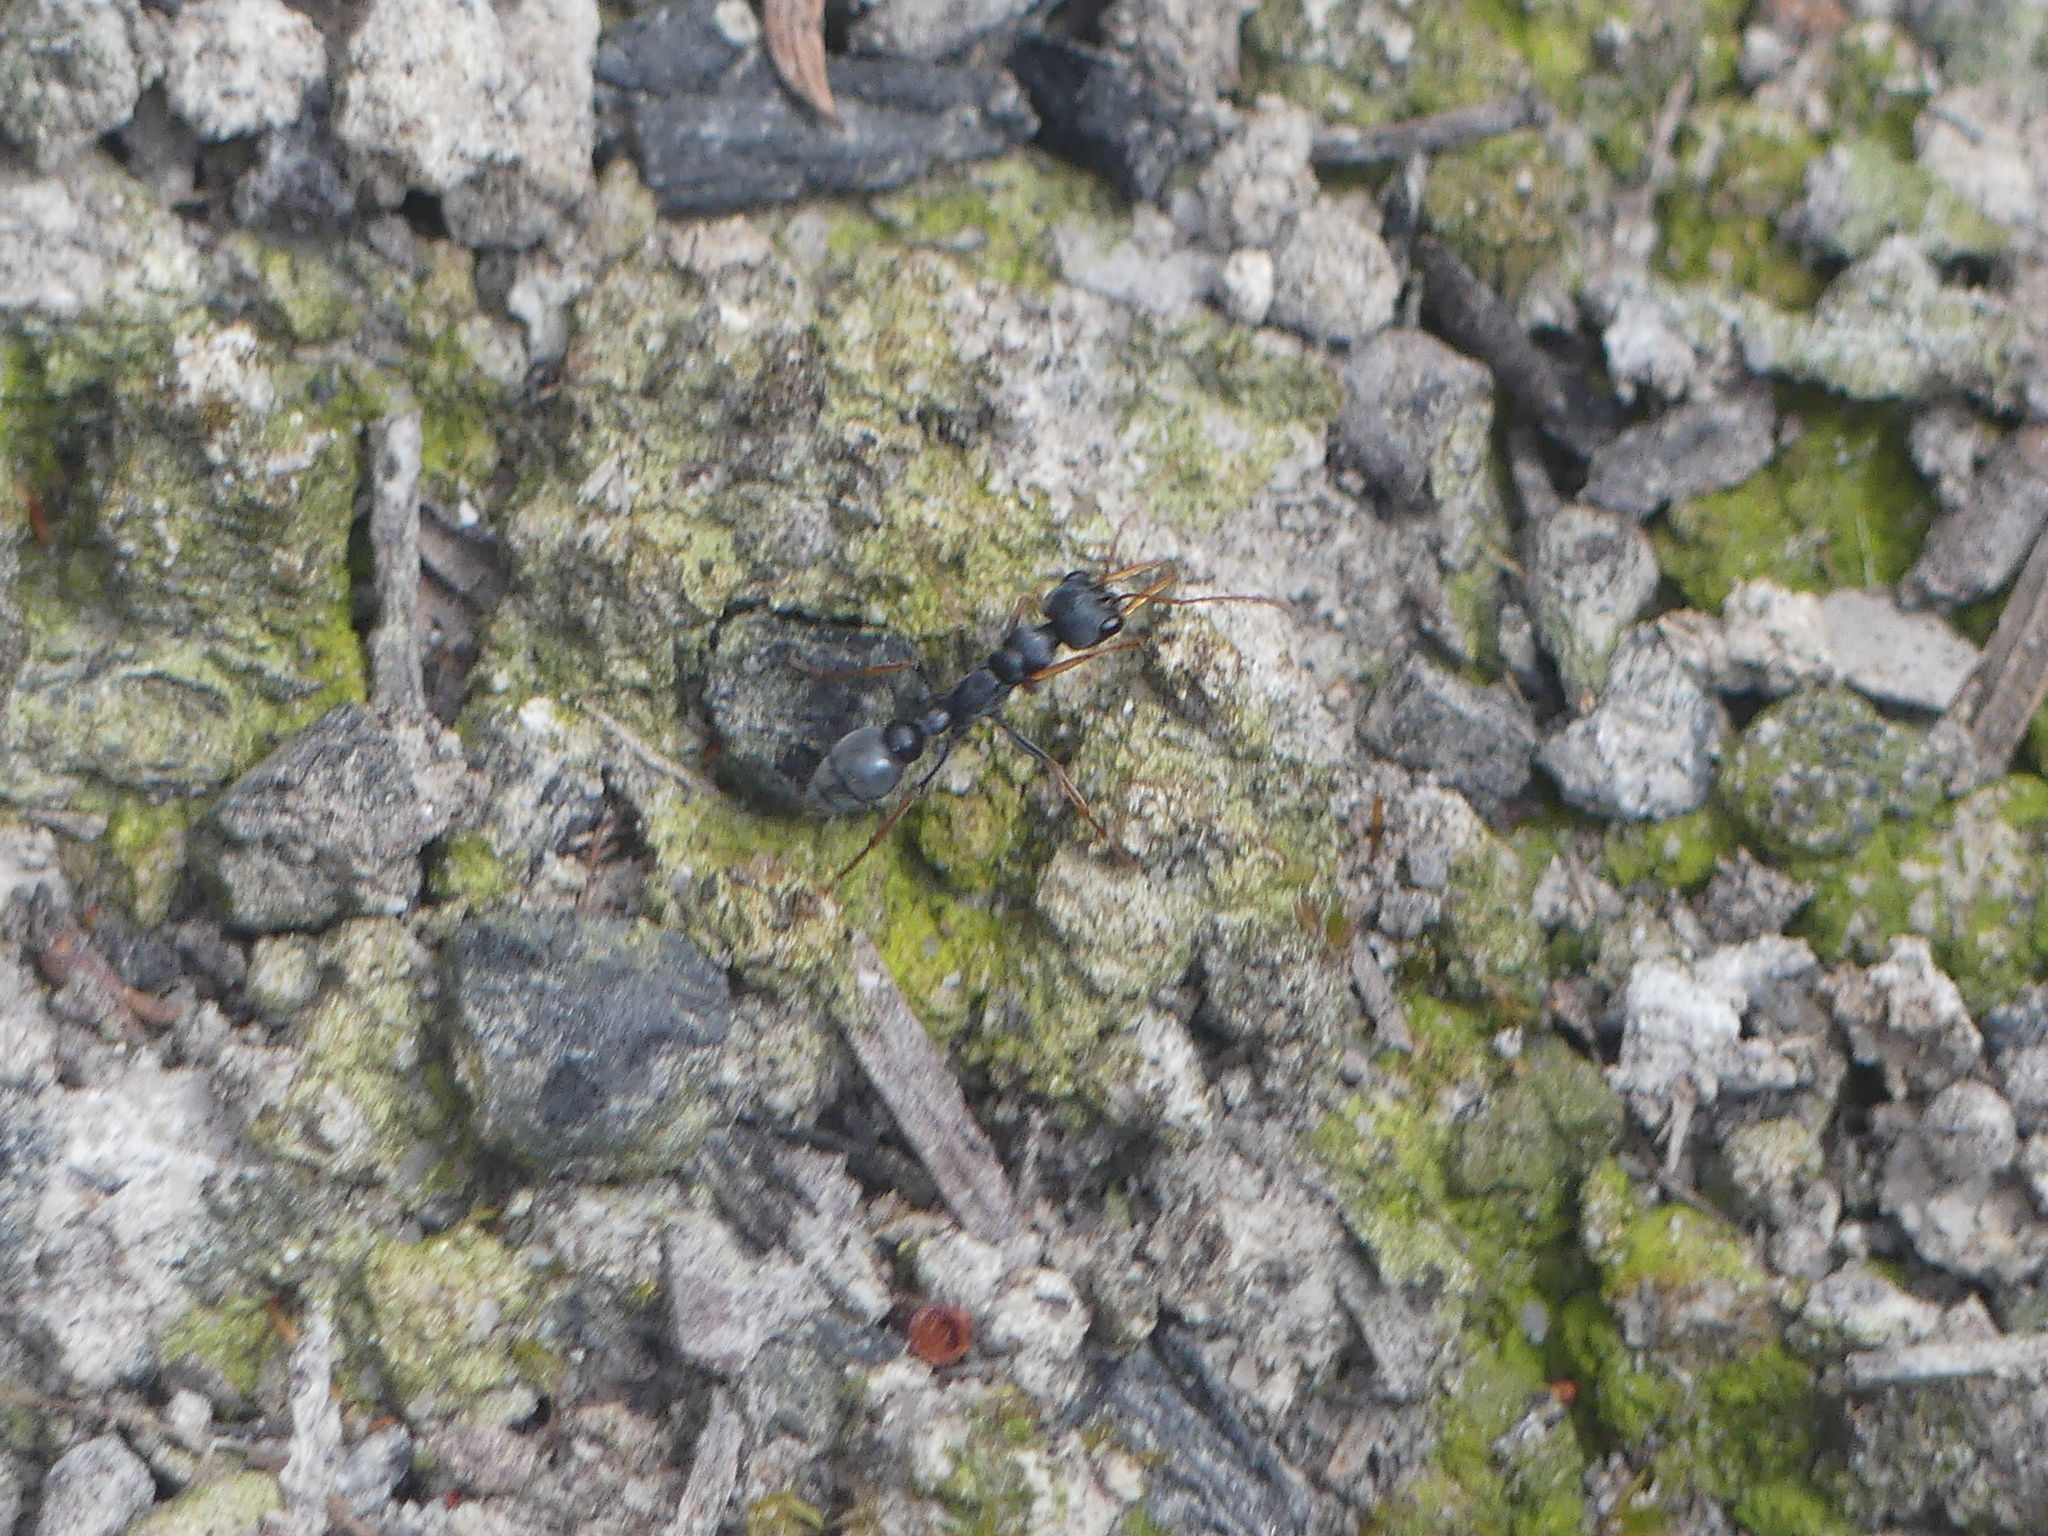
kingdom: Animalia
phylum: Arthropoda
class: Insecta
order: Hymenoptera
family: Formicidae
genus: Myrmecia
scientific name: Myrmecia pilosula
